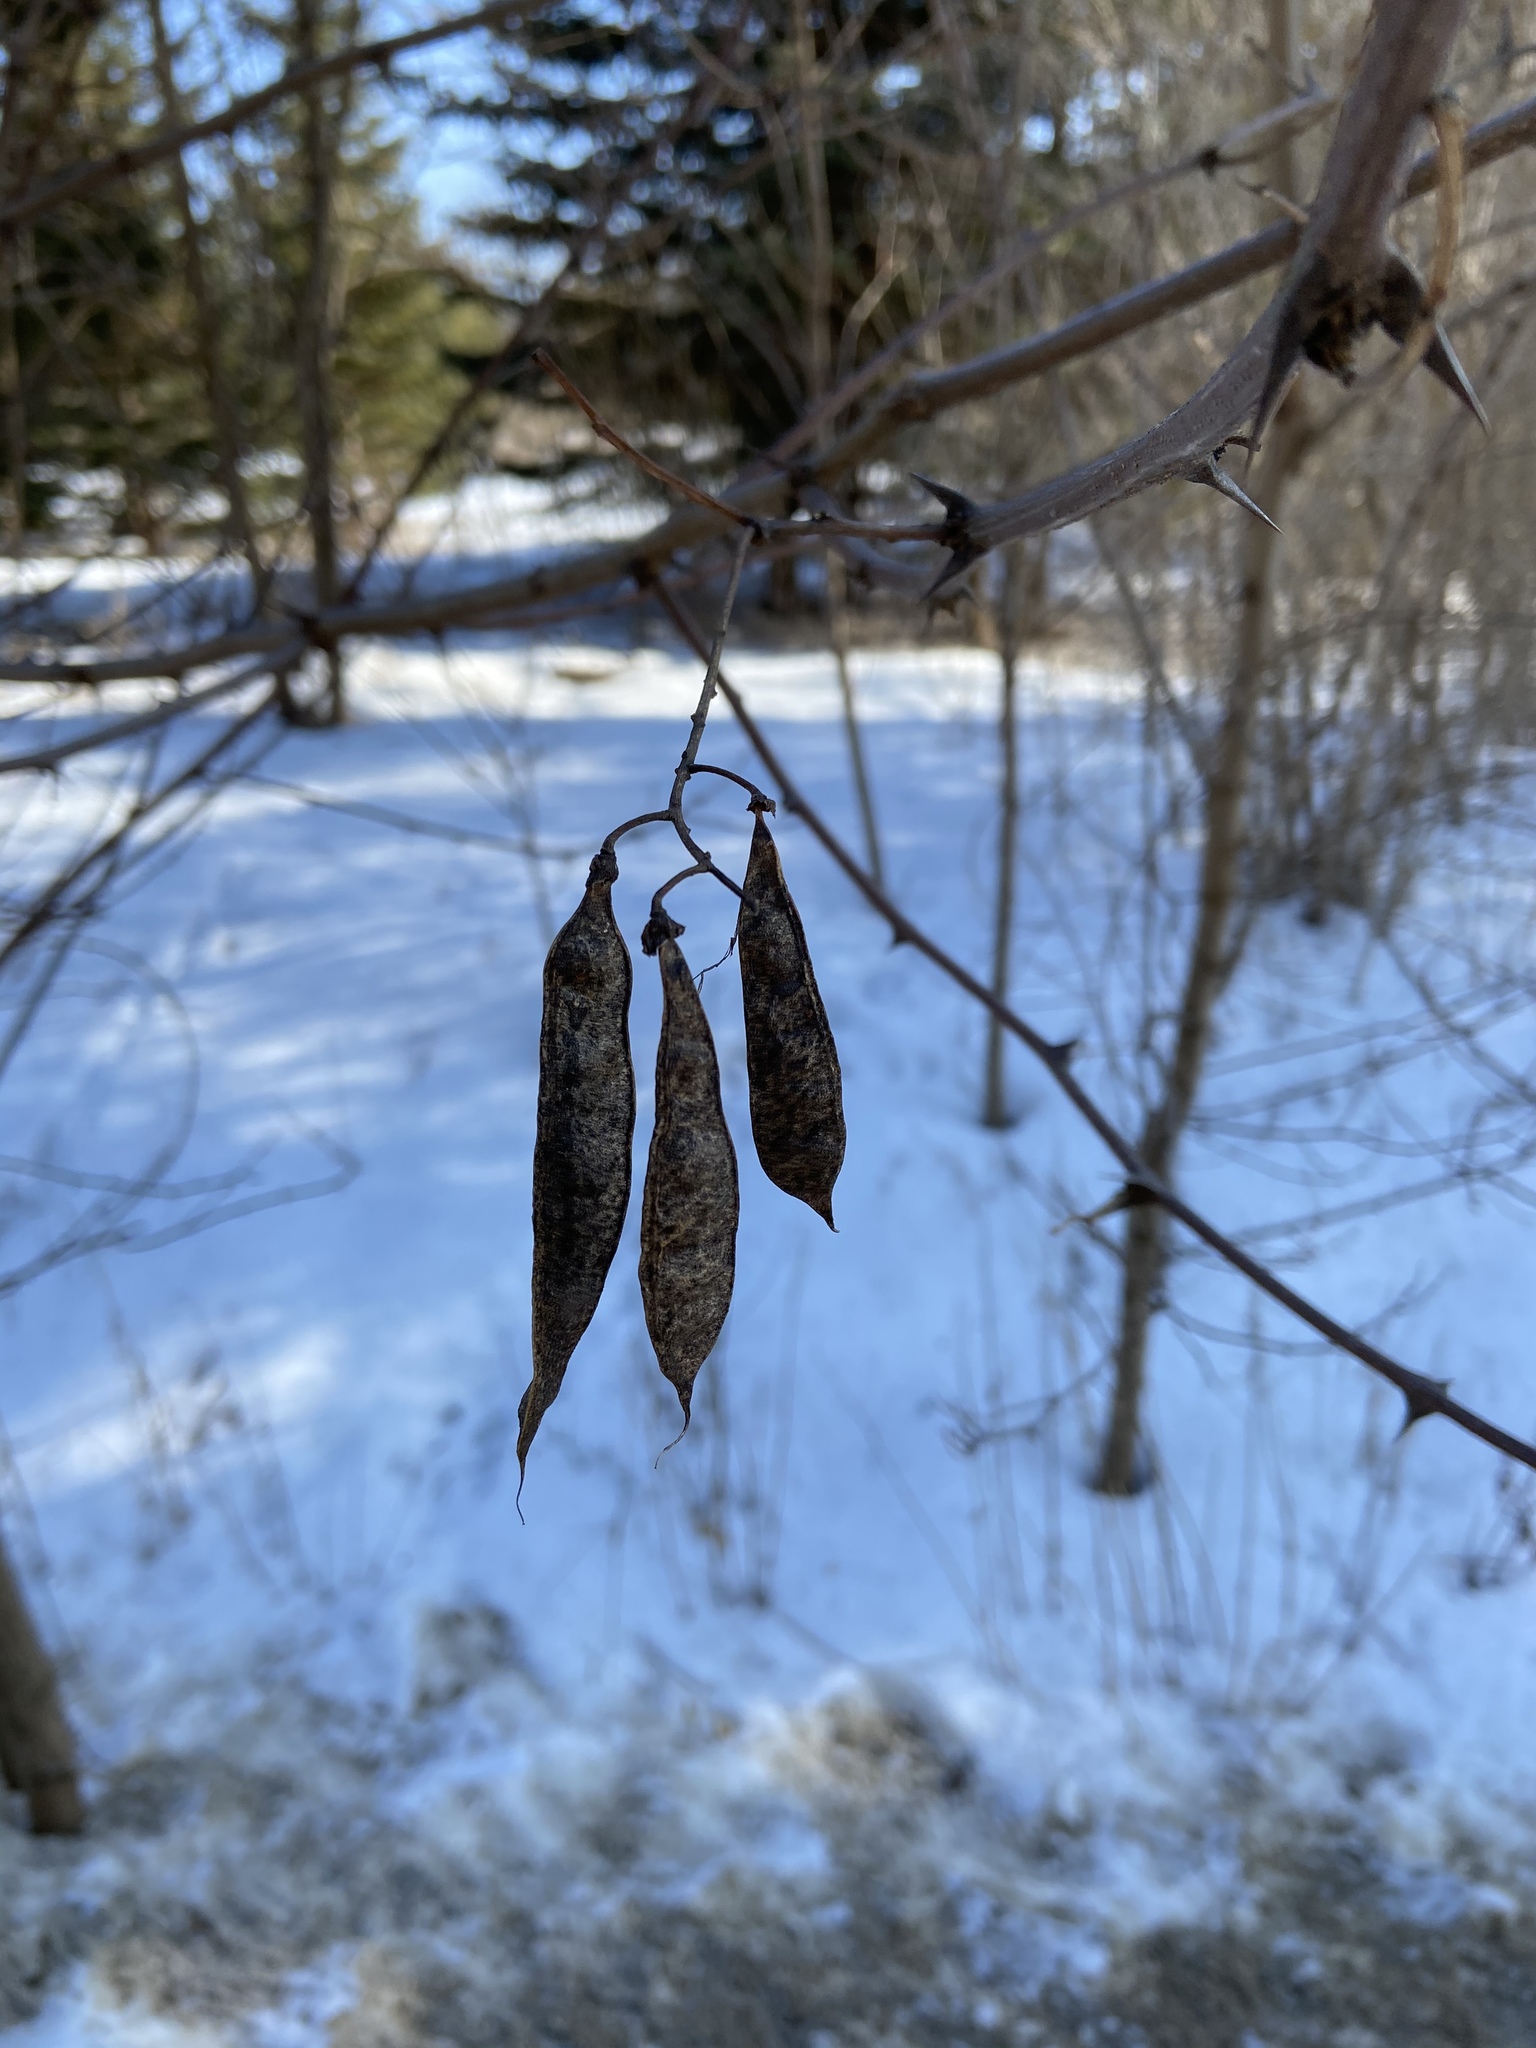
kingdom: Plantae
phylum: Tracheophyta
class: Magnoliopsida
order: Fabales
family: Fabaceae
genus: Robinia
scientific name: Robinia pseudoacacia
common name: Black locust
